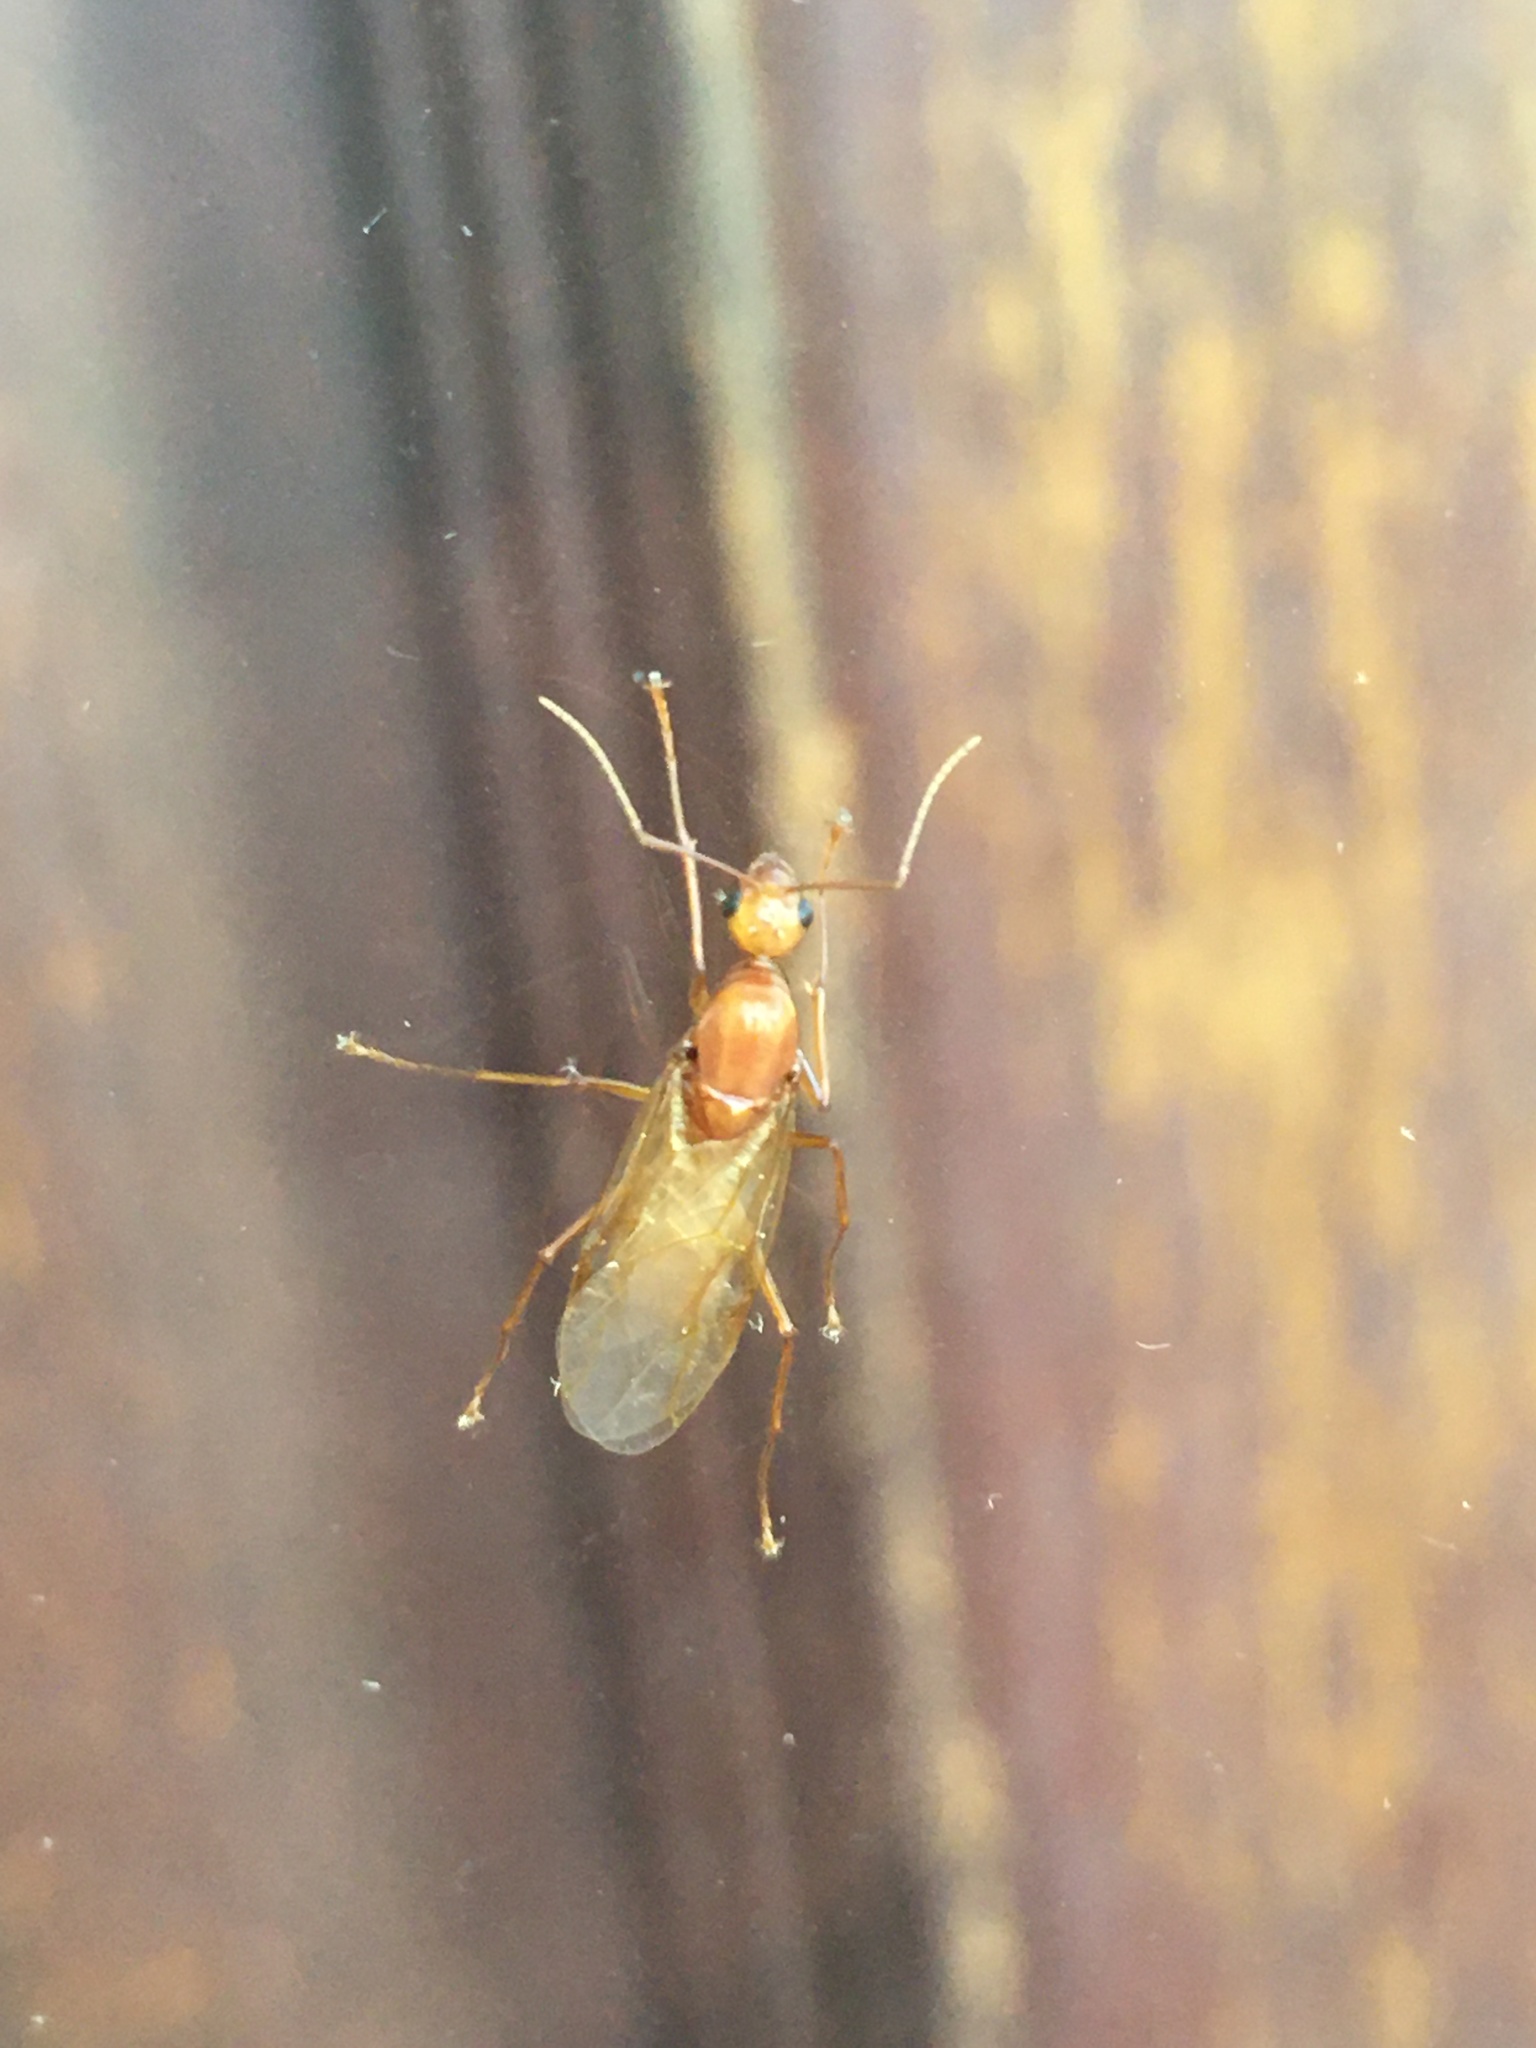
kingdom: Animalia
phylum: Arthropoda
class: Insecta
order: Hymenoptera
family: Formicidae
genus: Camponotus
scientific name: Camponotus castaneus
